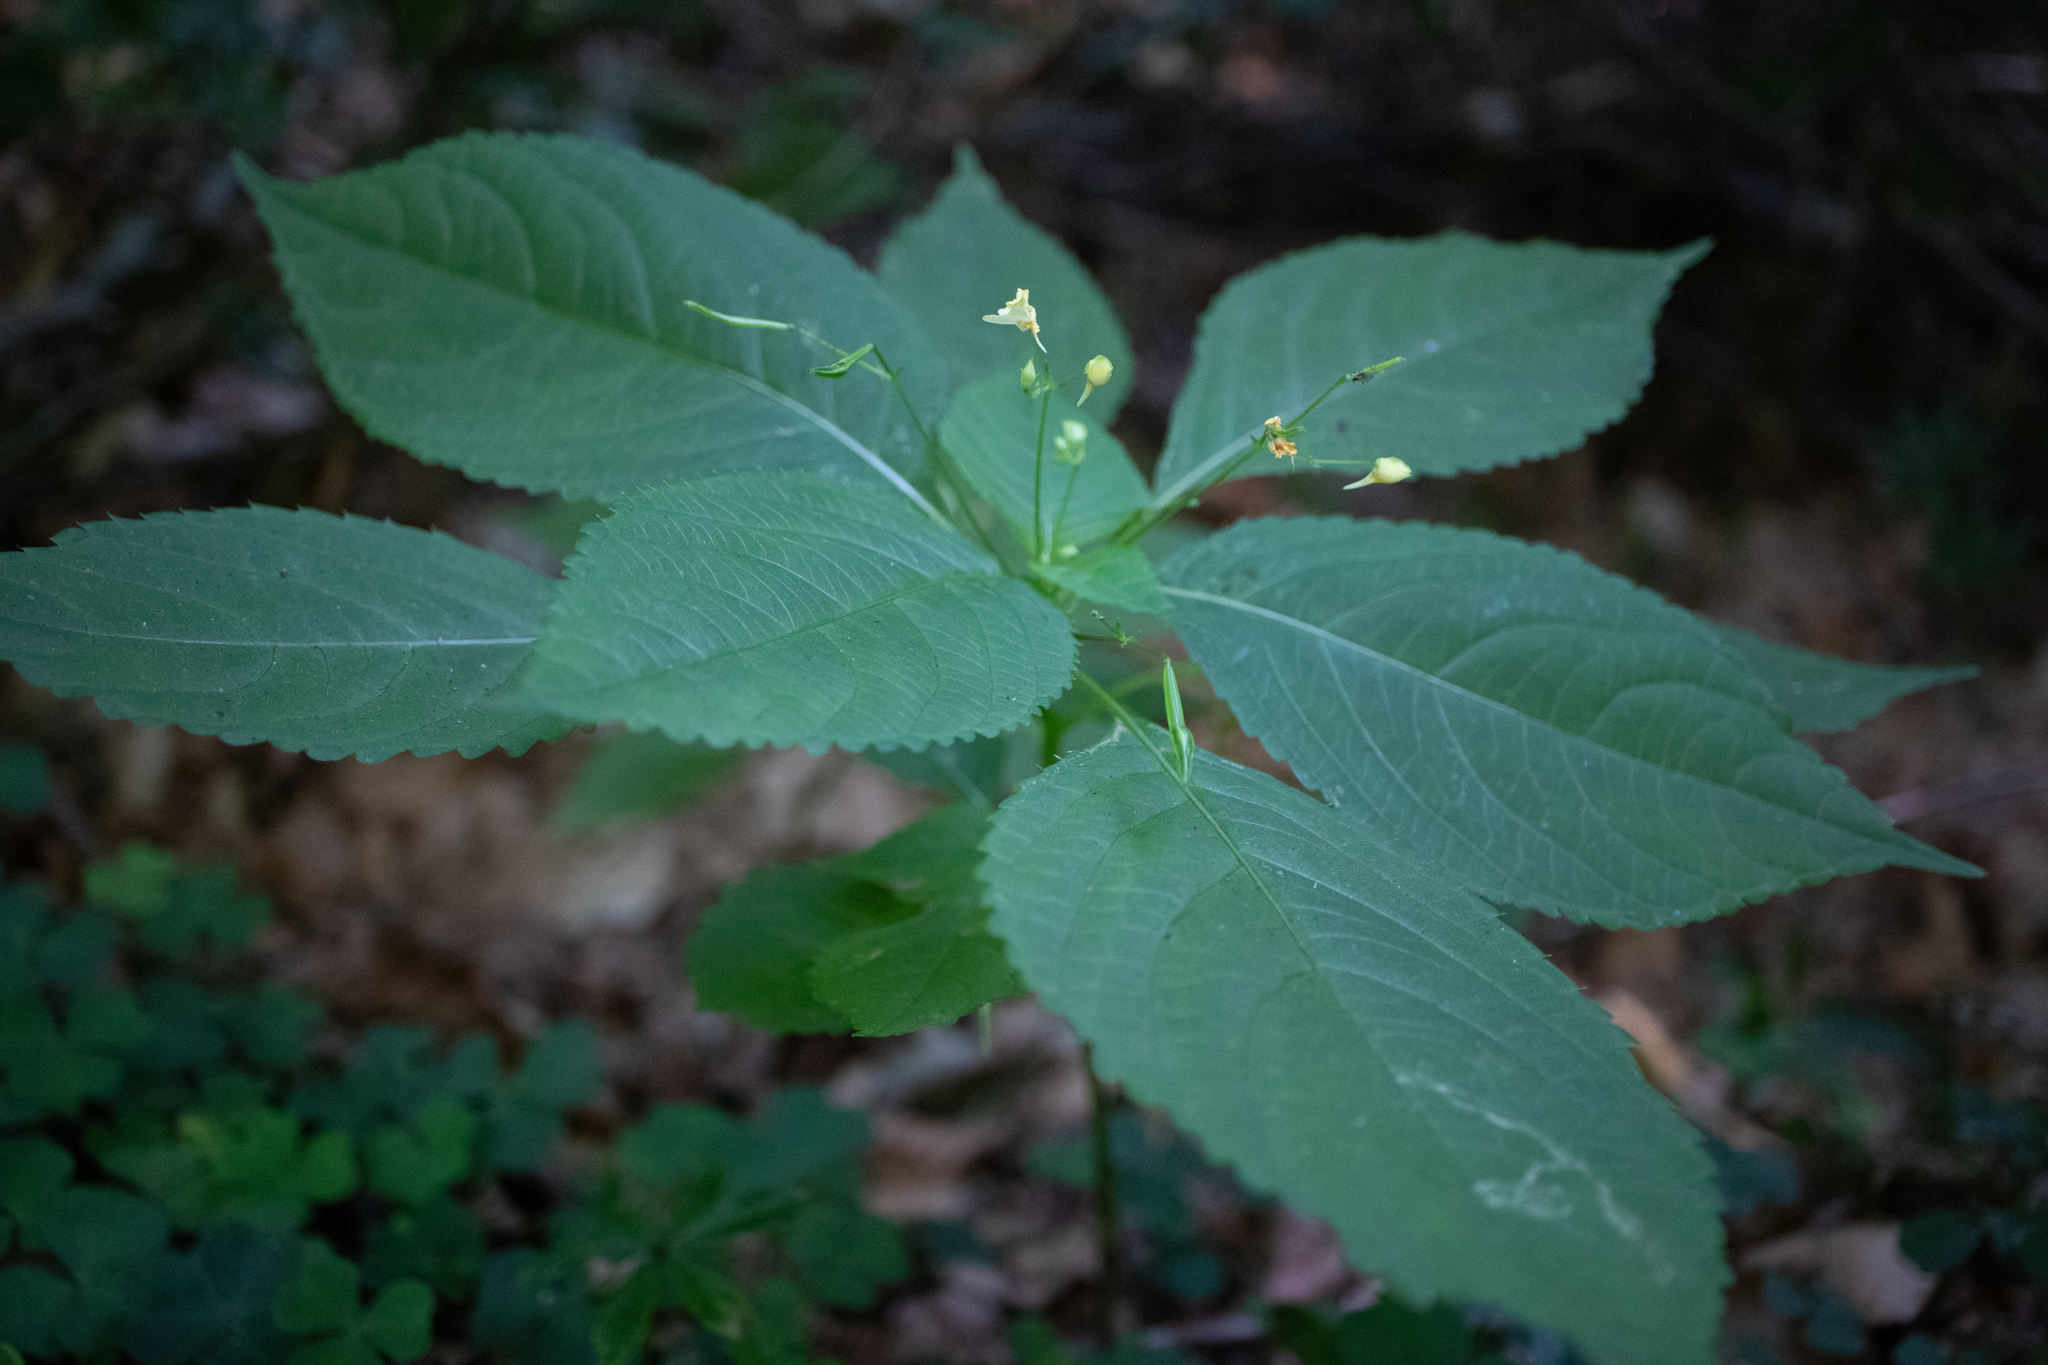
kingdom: Plantae
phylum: Tracheophyta
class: Magnoliopsida
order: Ericales
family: Balsaminaceae
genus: Impatiens
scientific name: Impatiens parviflora
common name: Small balsam
